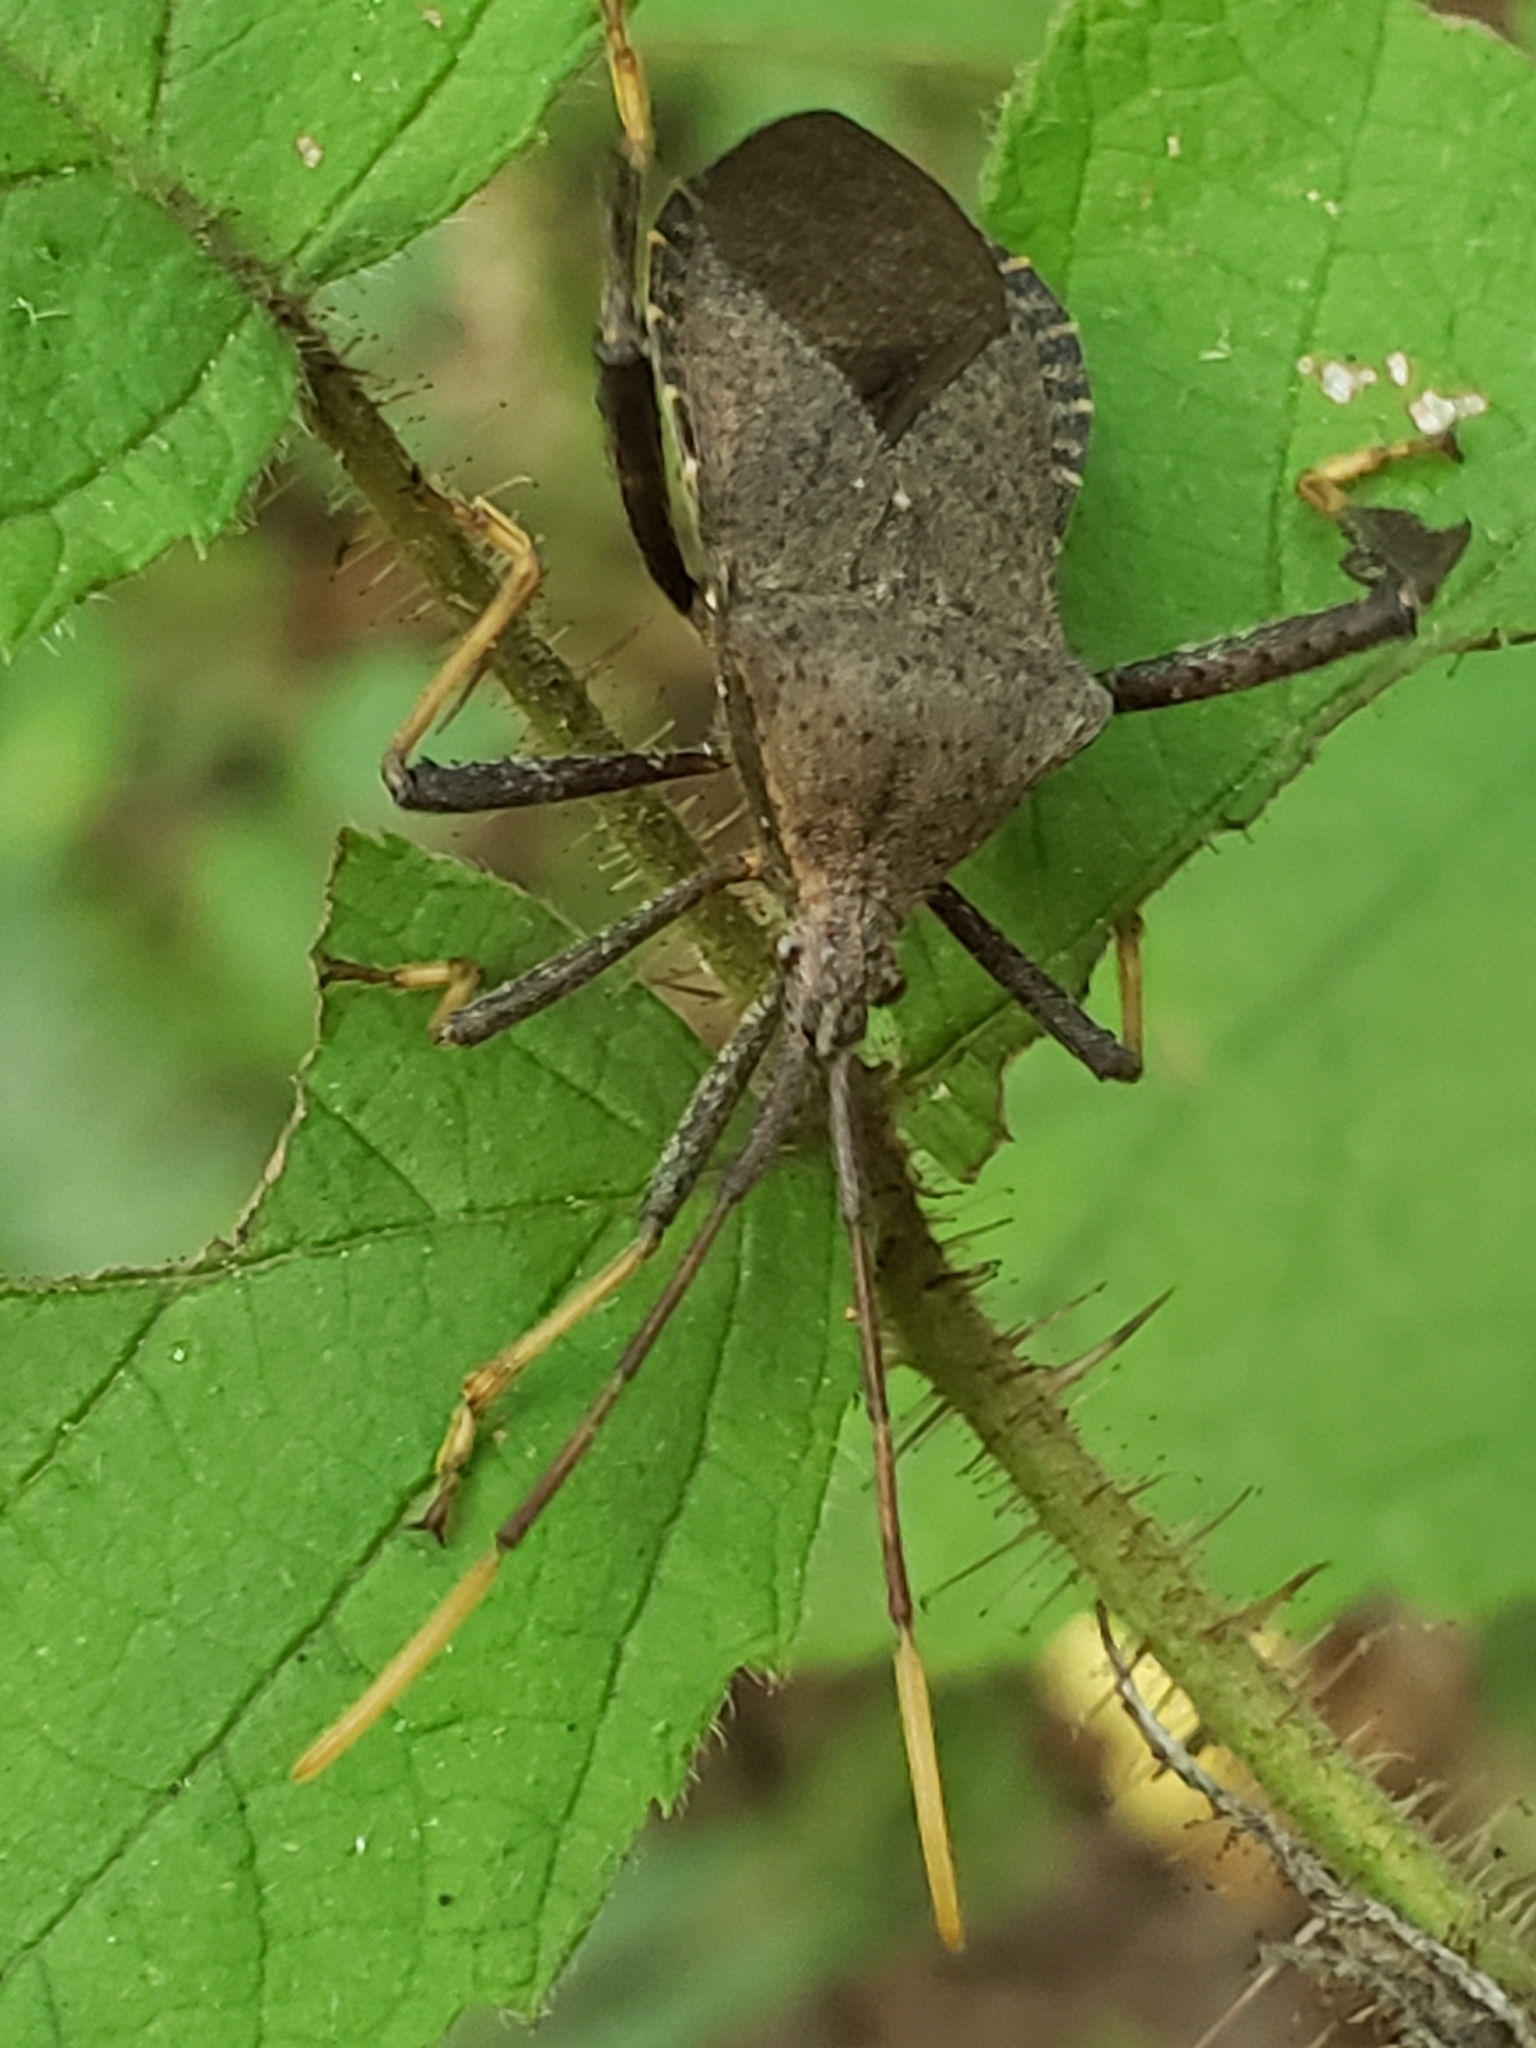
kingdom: Animalia
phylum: Arthropoda
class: Insecta
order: Hemiptera
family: Coreidae
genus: Acanthocephala
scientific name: Acanthocephala terminalis
